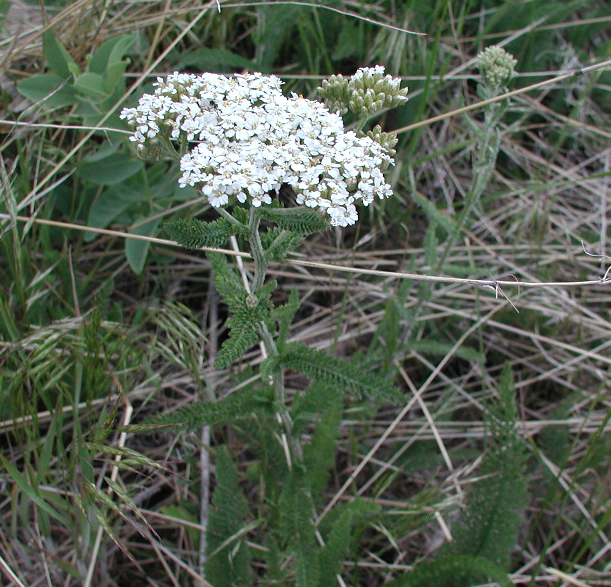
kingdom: Plantae
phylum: Tracheophyta
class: Magnoliopsida
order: Asterales
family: Asteraceae
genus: Achillea
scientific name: Achillea millefolium
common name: Yarrow
